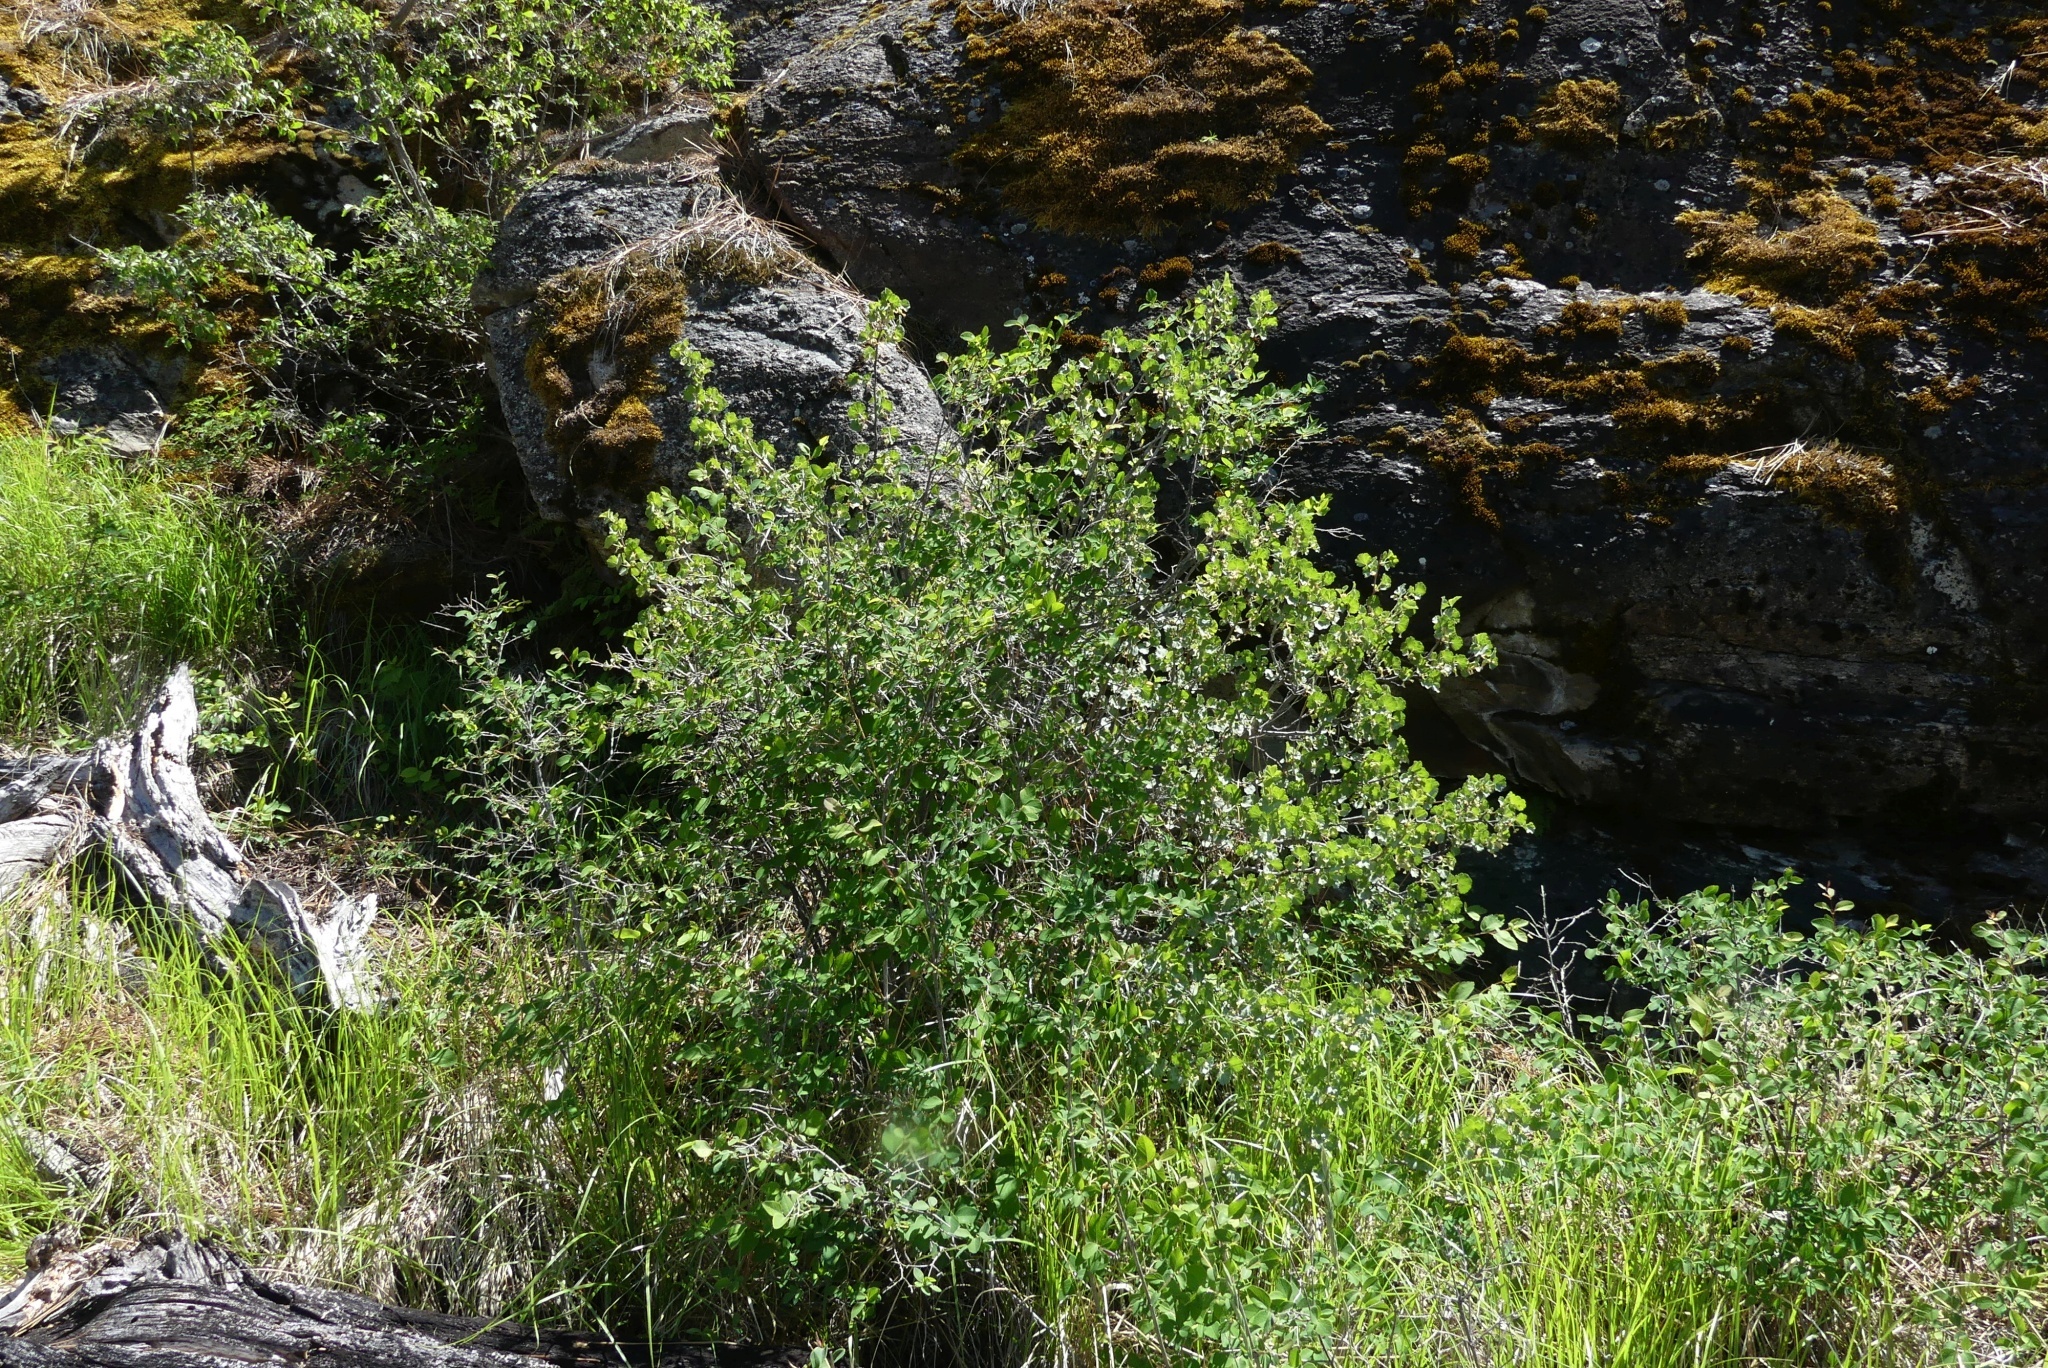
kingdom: Plantae
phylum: Tracheophyta
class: Magnoliopsida
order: Saxifragales
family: Grossulariaceae
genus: Ribes
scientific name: Ribes cereum
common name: Wax currant
